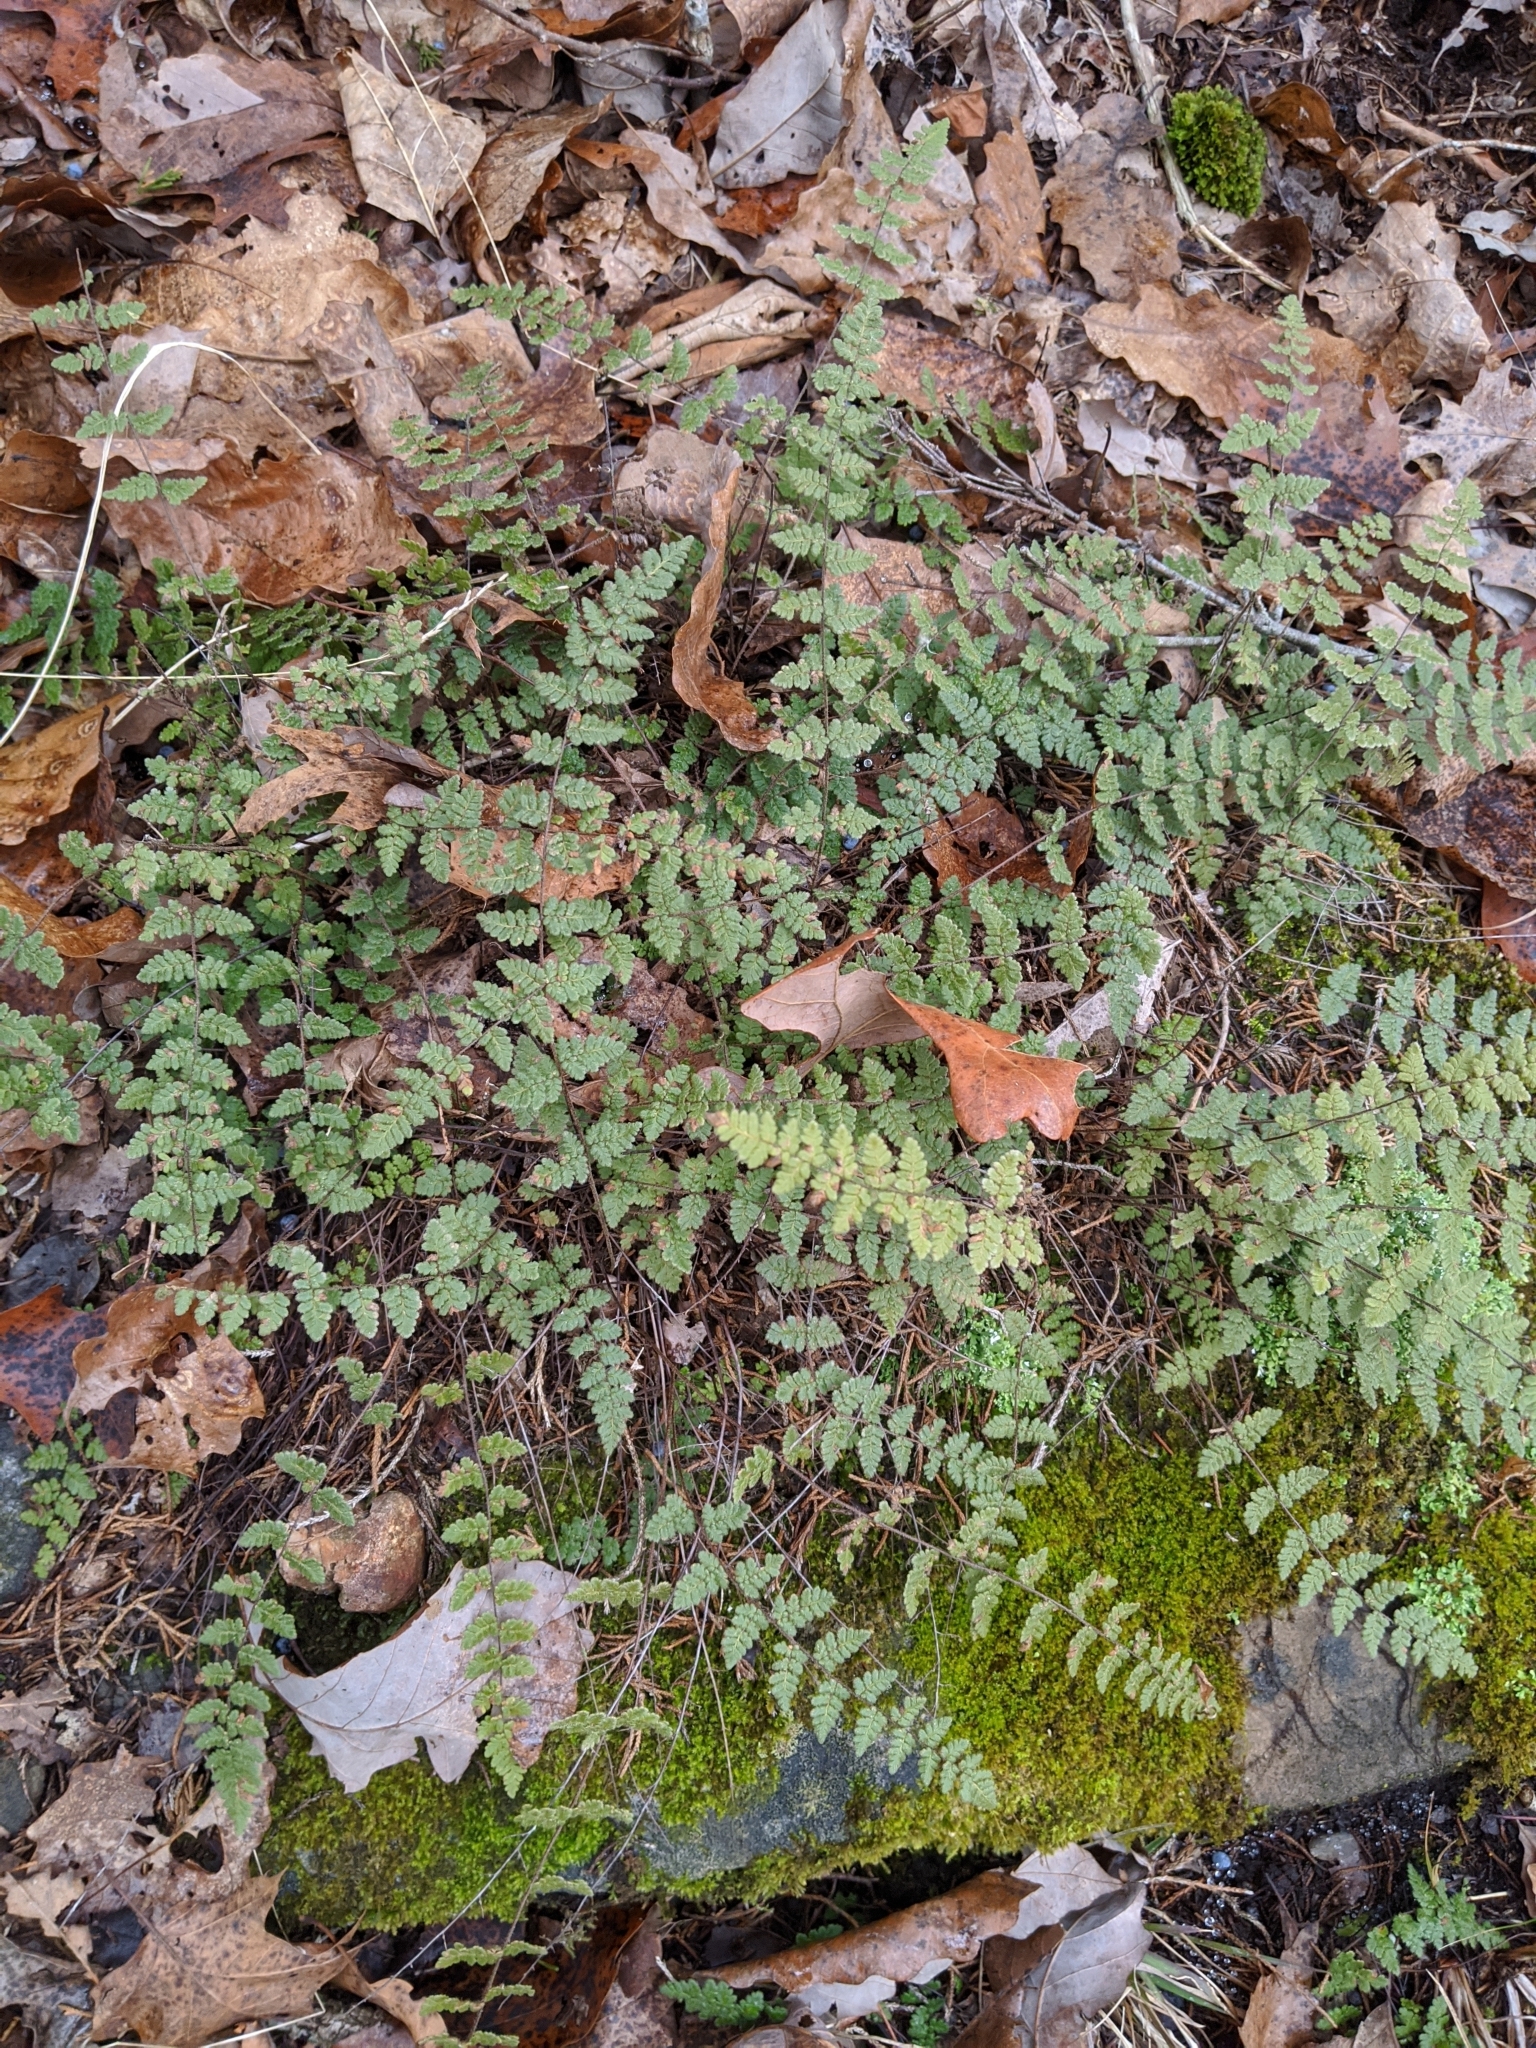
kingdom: Plantae
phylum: Tracheophyta
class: Polypodiopsida
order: Polypodiales
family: Pteridaceae
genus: Myriopteris
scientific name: Myriopteris lanosa
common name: Hairy lip fern
